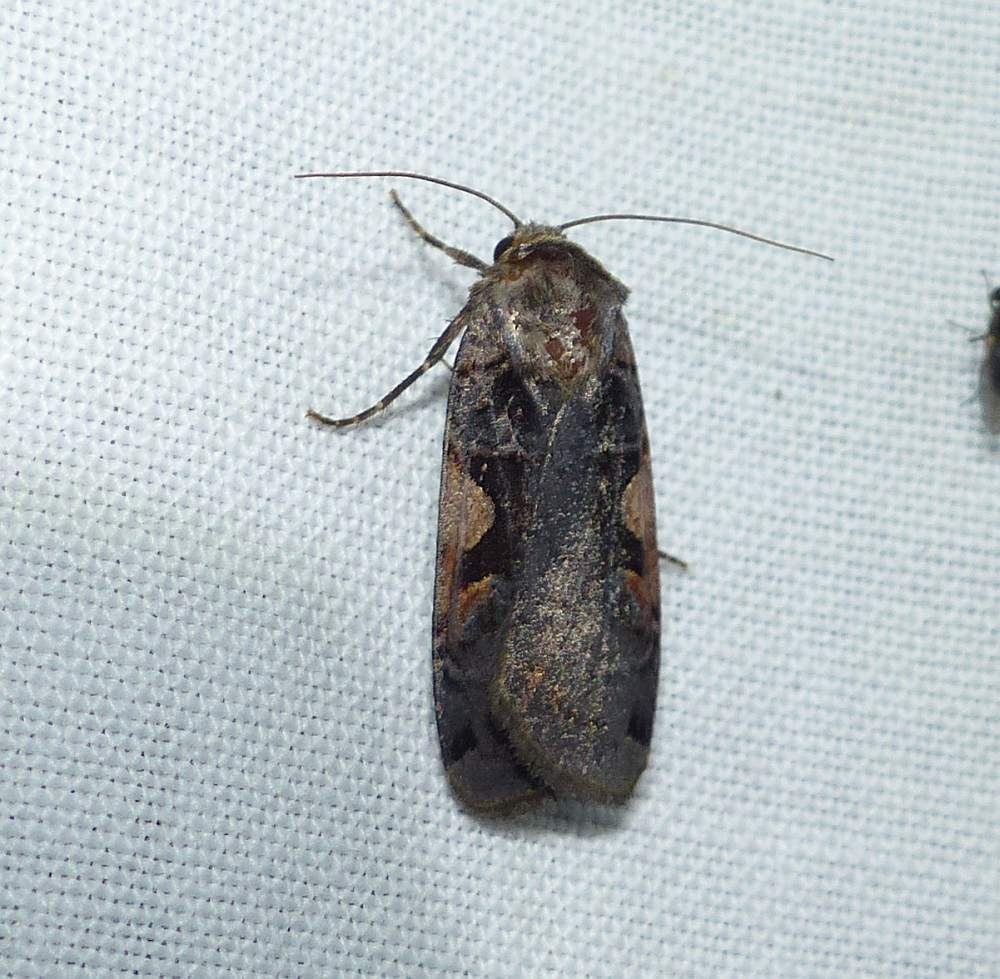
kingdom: Animalia
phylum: Arthropoda
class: Insecta
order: Lepidoptera
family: Noctuidae
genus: Xestia
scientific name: Xestia
